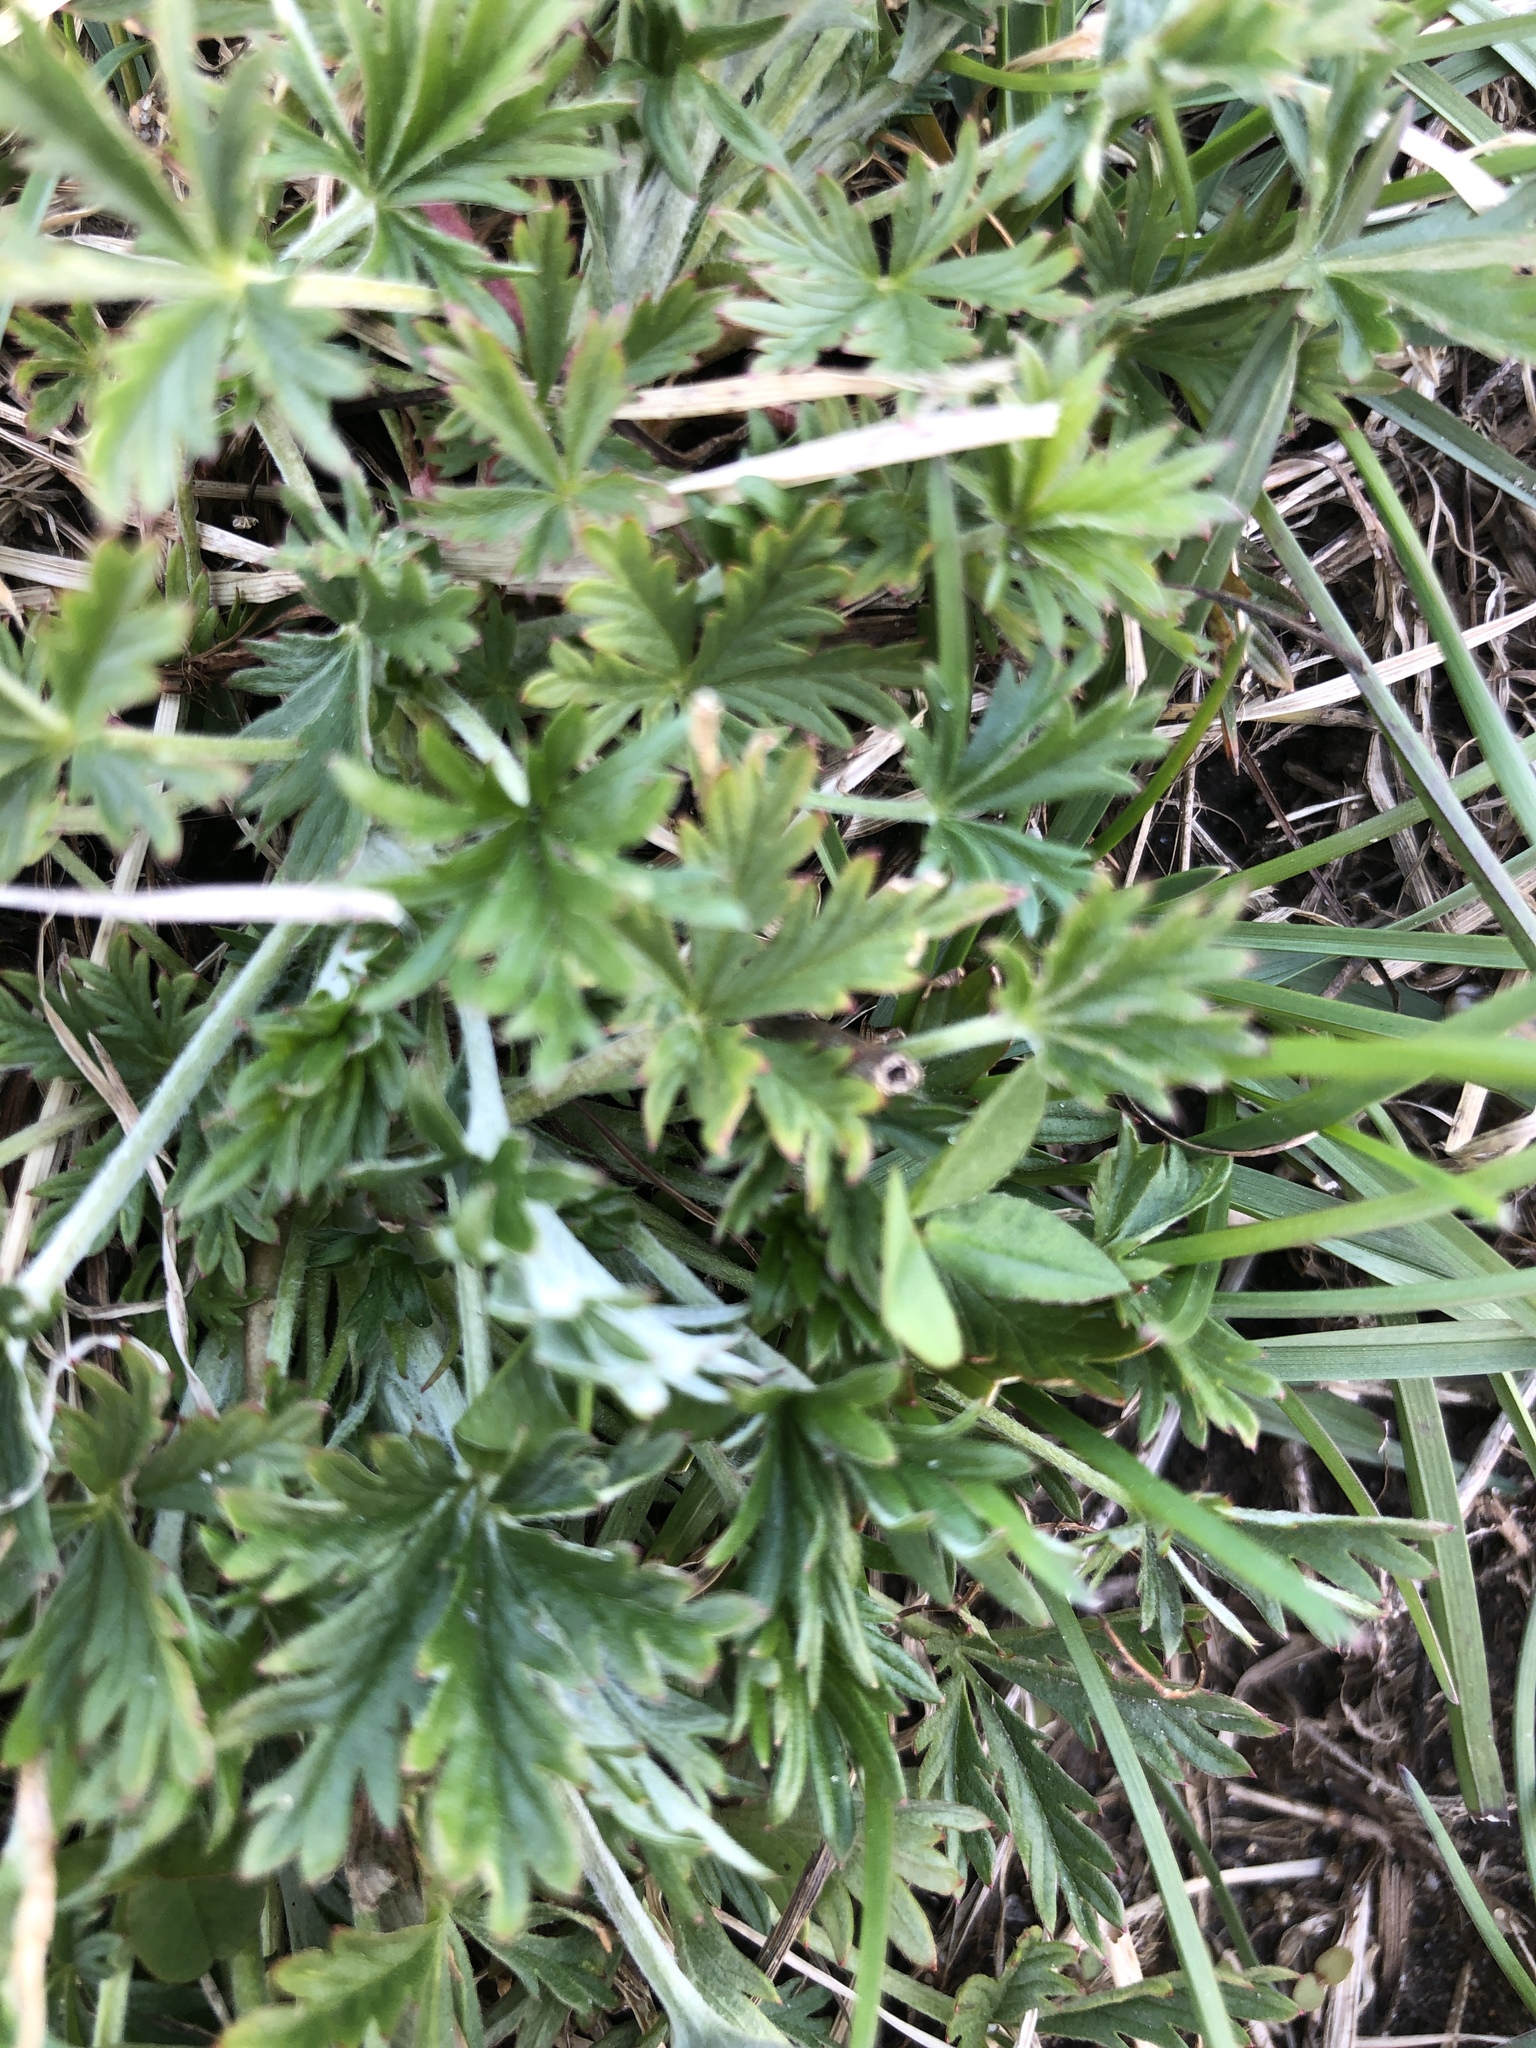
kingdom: Plantae
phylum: Tracheophyta
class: Magnoliopsida
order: Rosales
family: Rosaceae
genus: Potentilla
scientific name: Potentilla argentea
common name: Hoary cinquefoil
